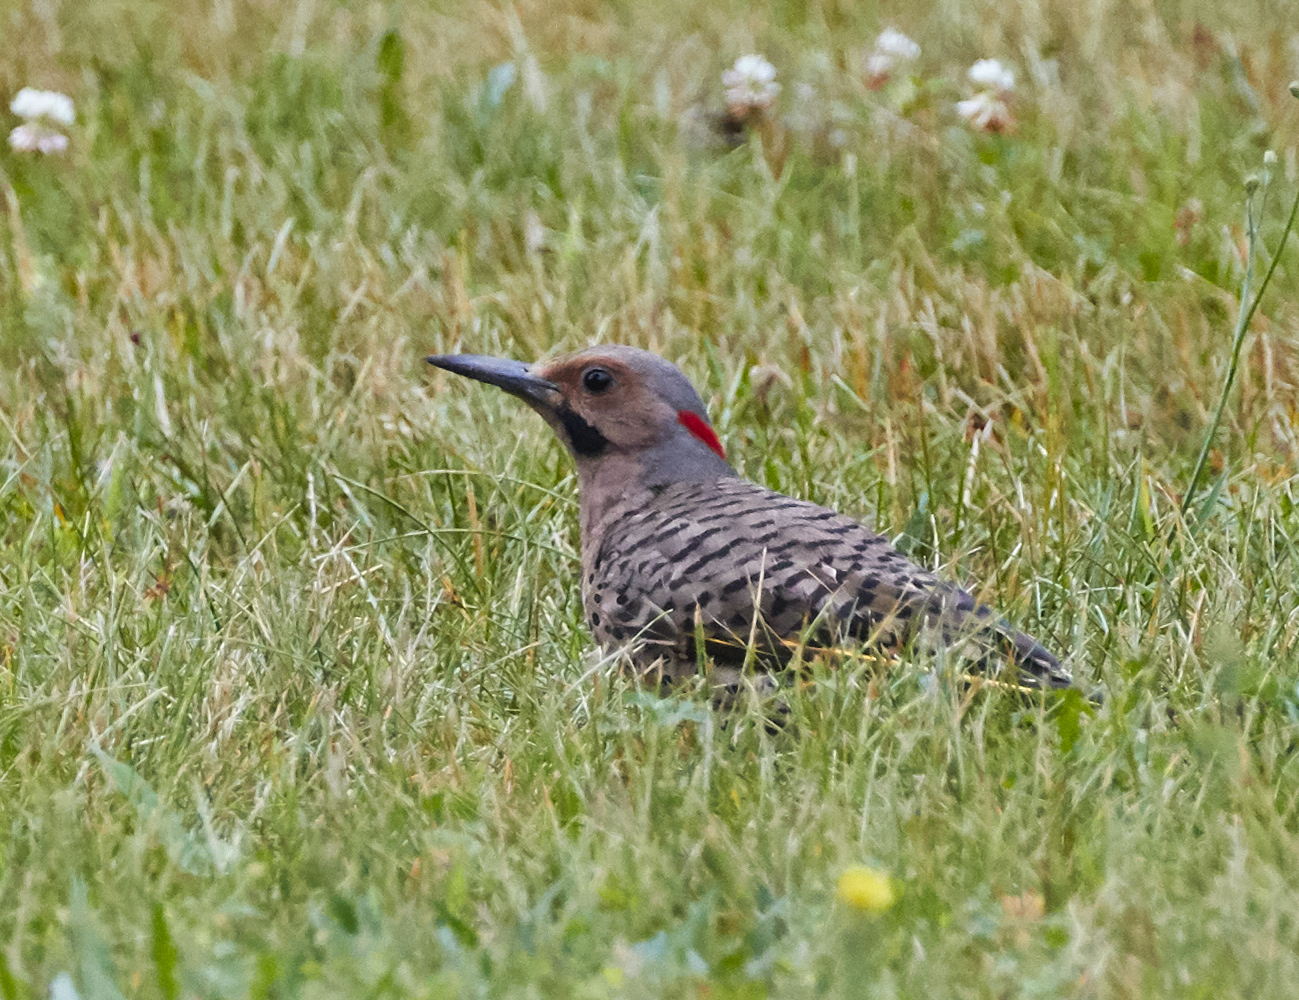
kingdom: Animalia
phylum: Chordata
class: Aves
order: Piciformes
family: Picidae
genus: Colaptes
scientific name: Colaptes auratus
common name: Northern flicker
